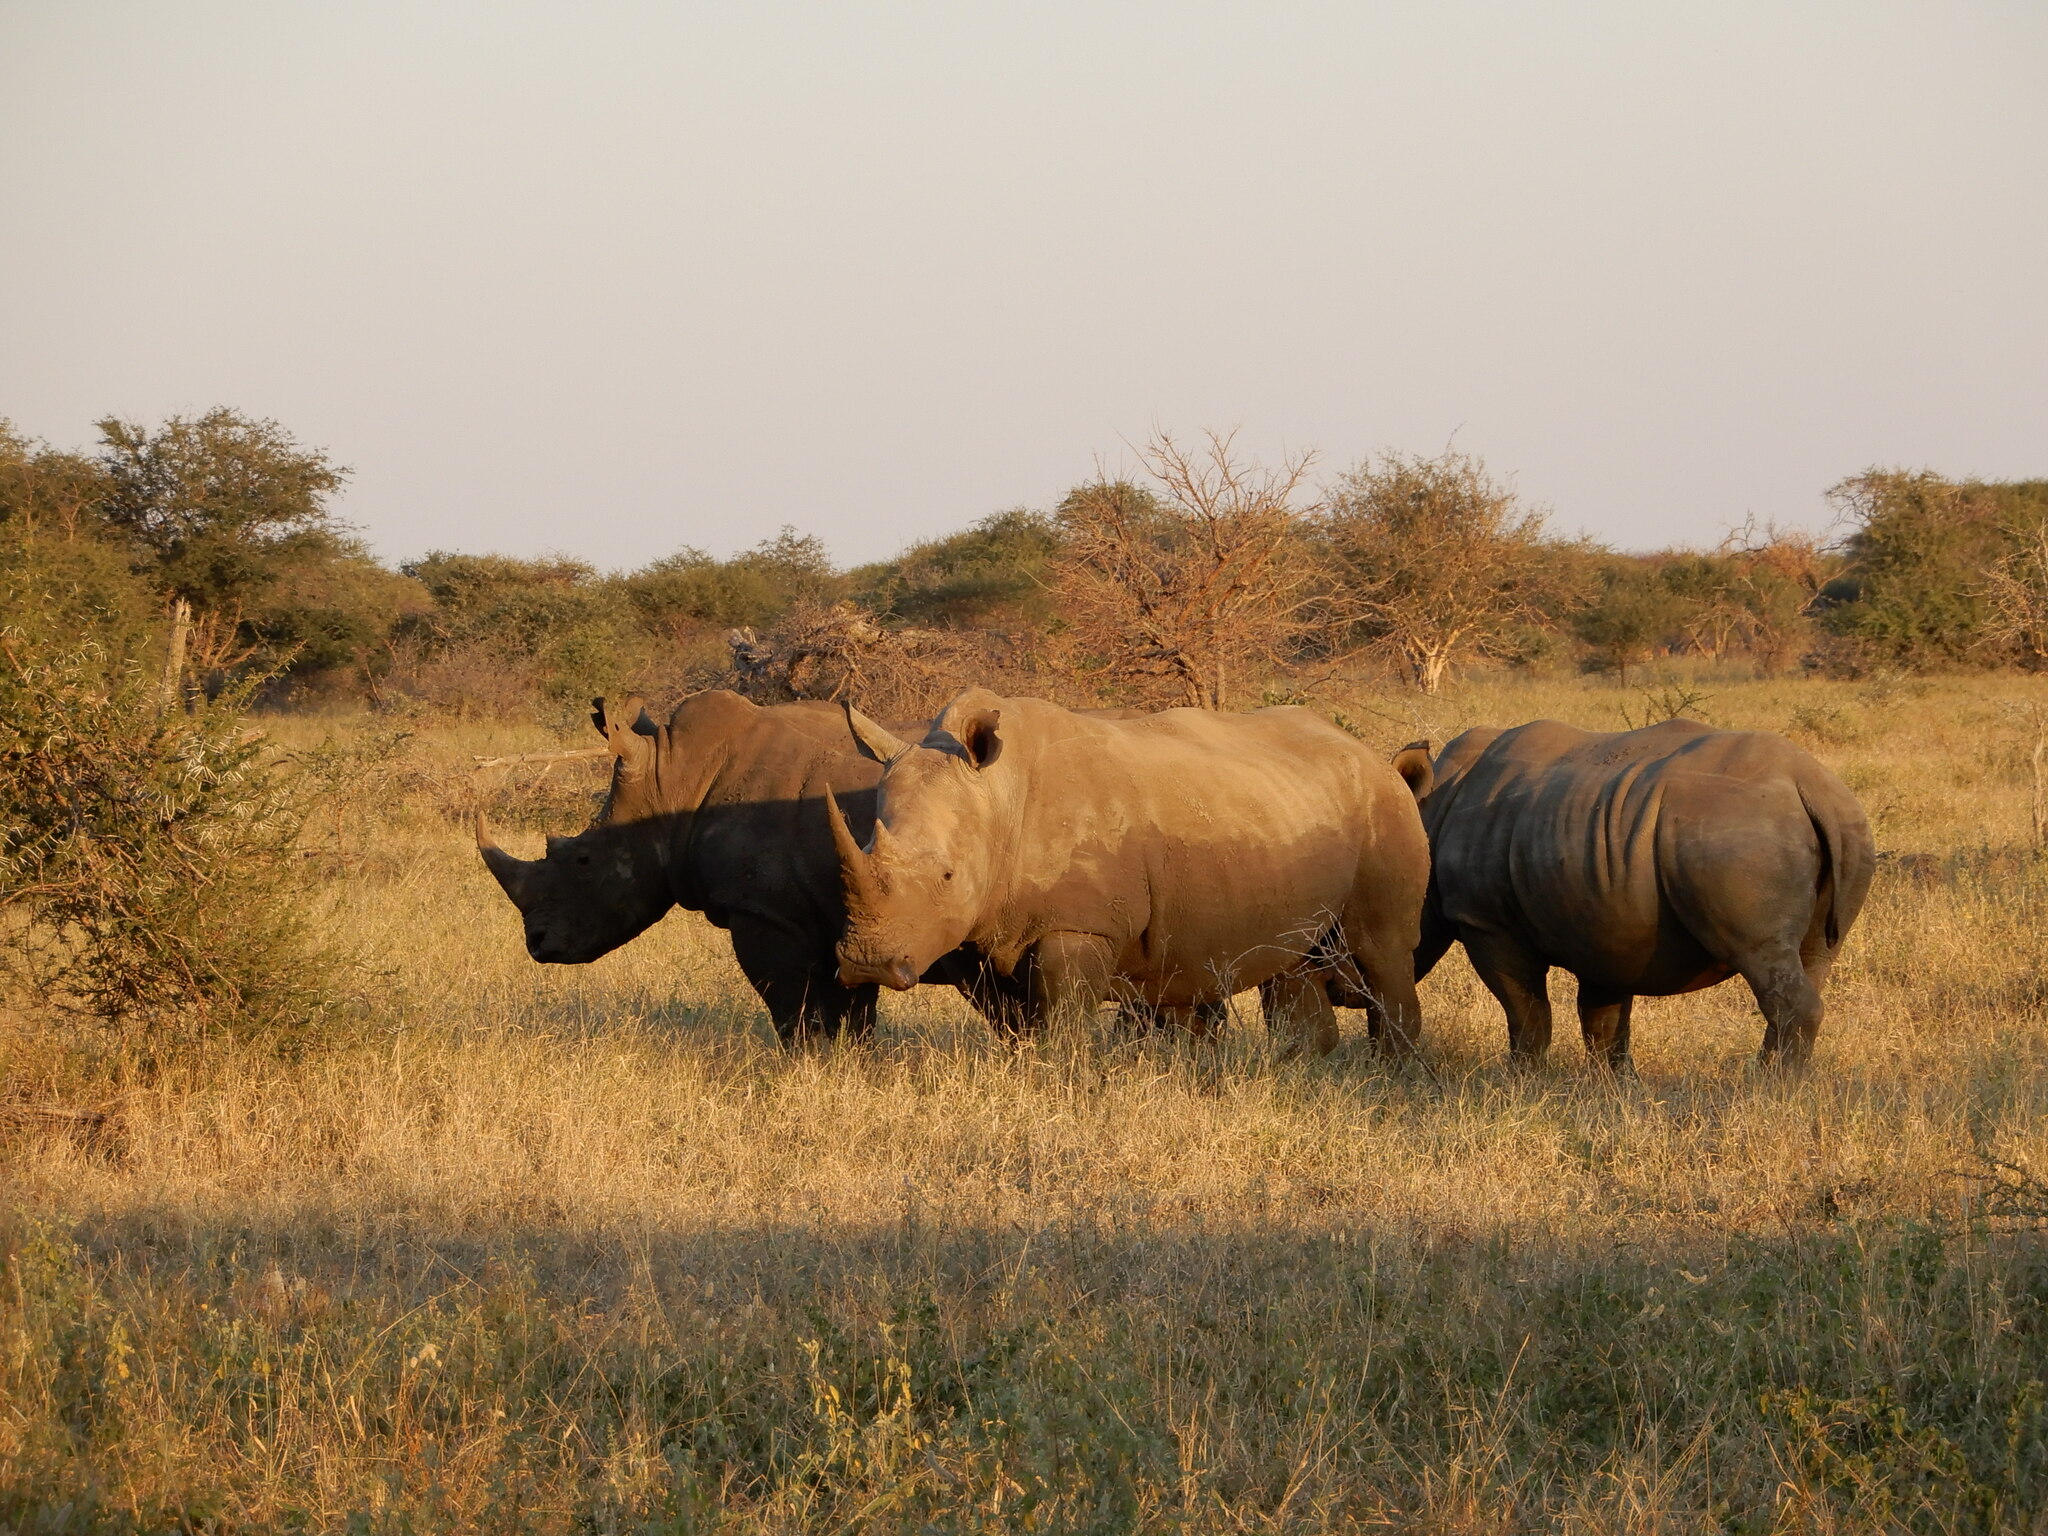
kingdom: Animalia
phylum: Chordata
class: Mammalia
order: Perissodactyla
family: Rhinocerotidae
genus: Ceratotherium
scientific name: Ceratotherium simum
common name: White rhinoceros
